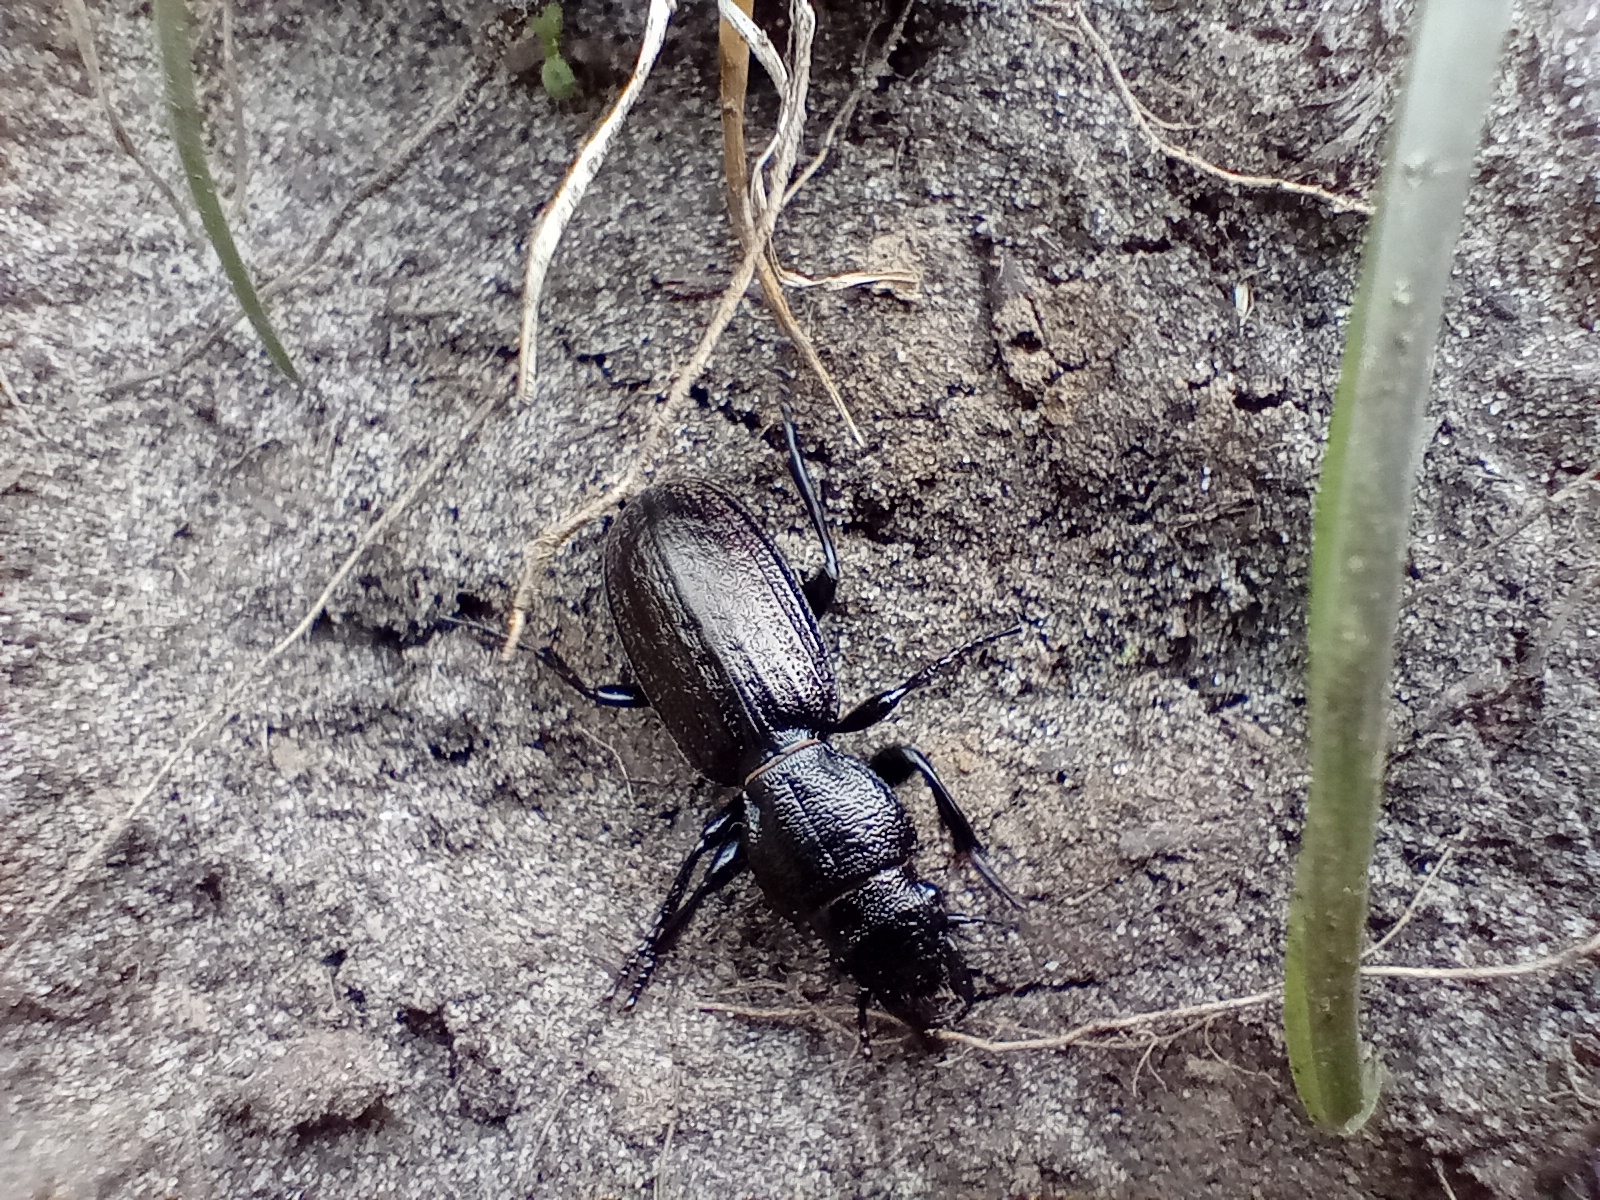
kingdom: Animalia
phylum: Arthropoda
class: Insecta
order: Coleoptera
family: Carabidae
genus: Mecodema
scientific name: Mecodema sculpturatum
